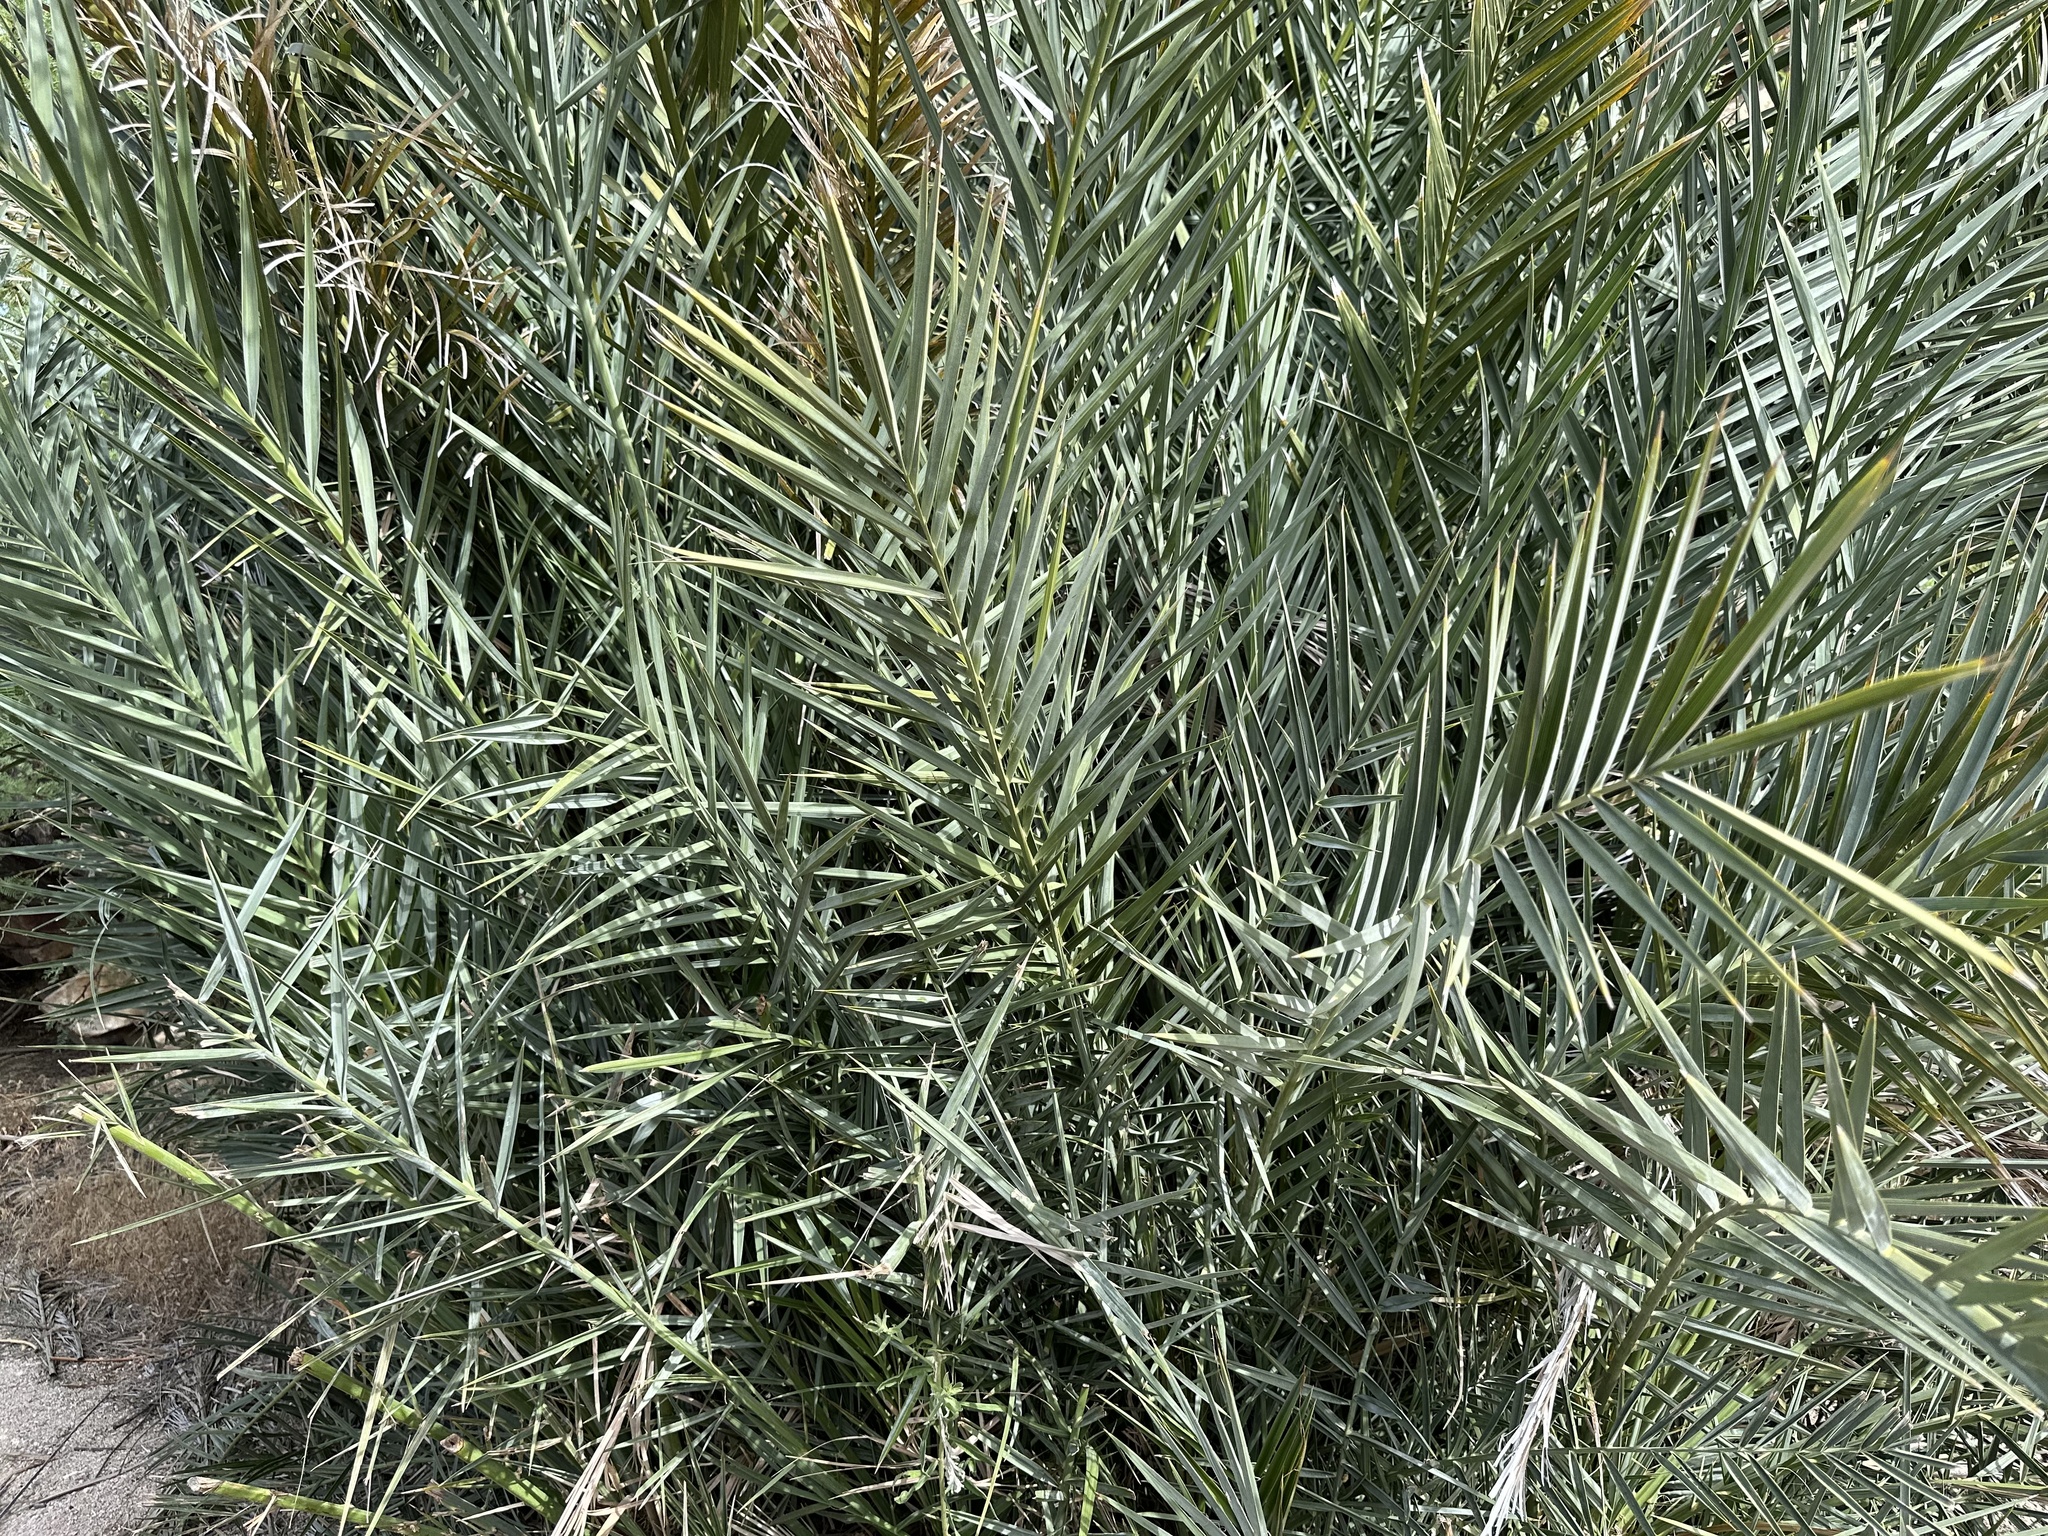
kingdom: Plantae
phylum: Tracheophyta
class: Liliopsida
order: Arecales
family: Arecaceae
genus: Phoenix
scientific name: Phoenix dactylifera
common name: Date palm
